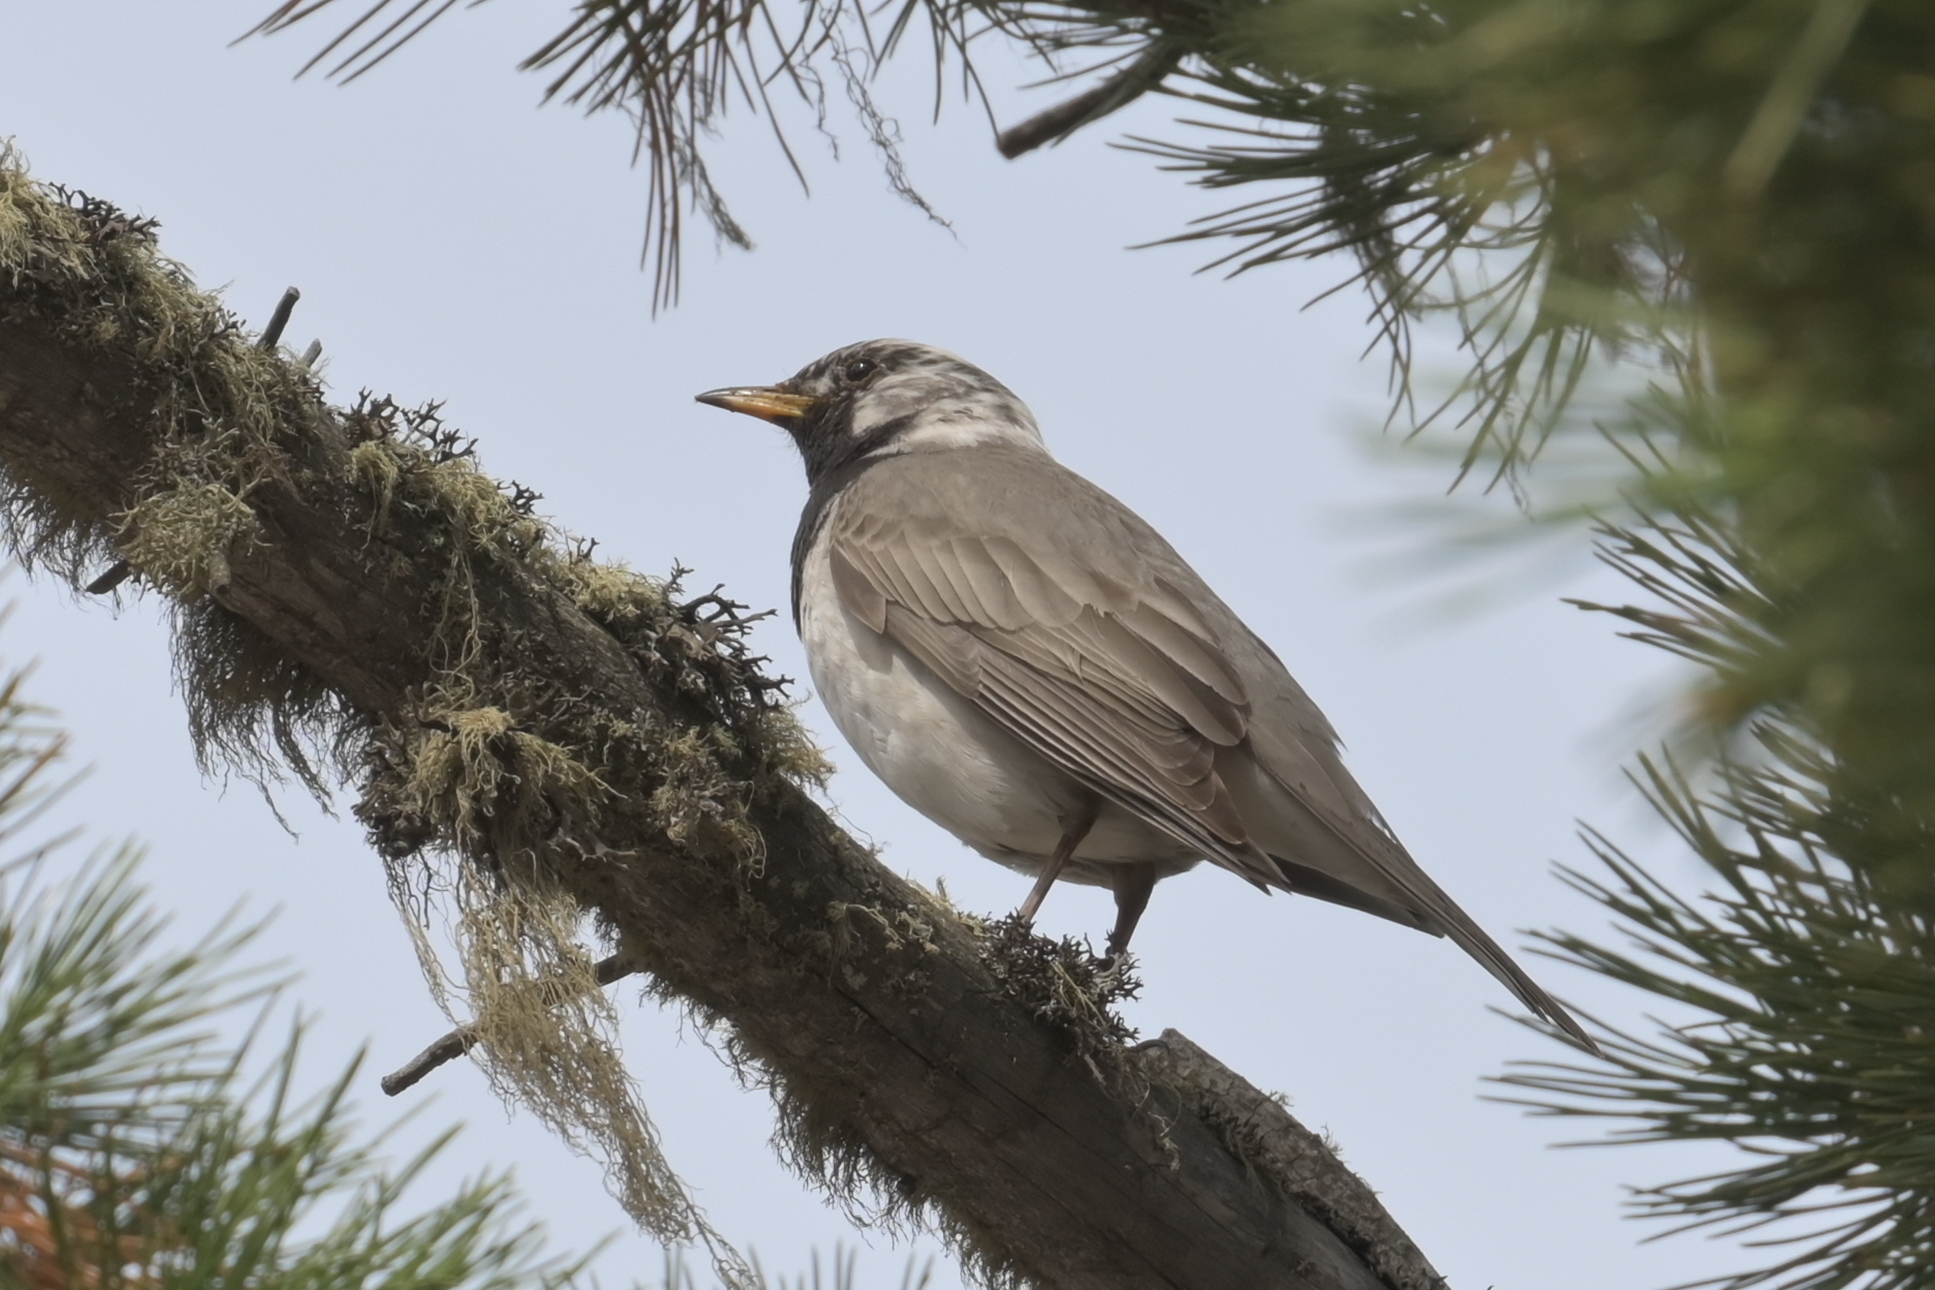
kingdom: Animalia
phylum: Chordata
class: Aves
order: Passeriformes
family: Turdidae
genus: Turdus
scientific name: Turdus atrogularis
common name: Black-throated thrush
